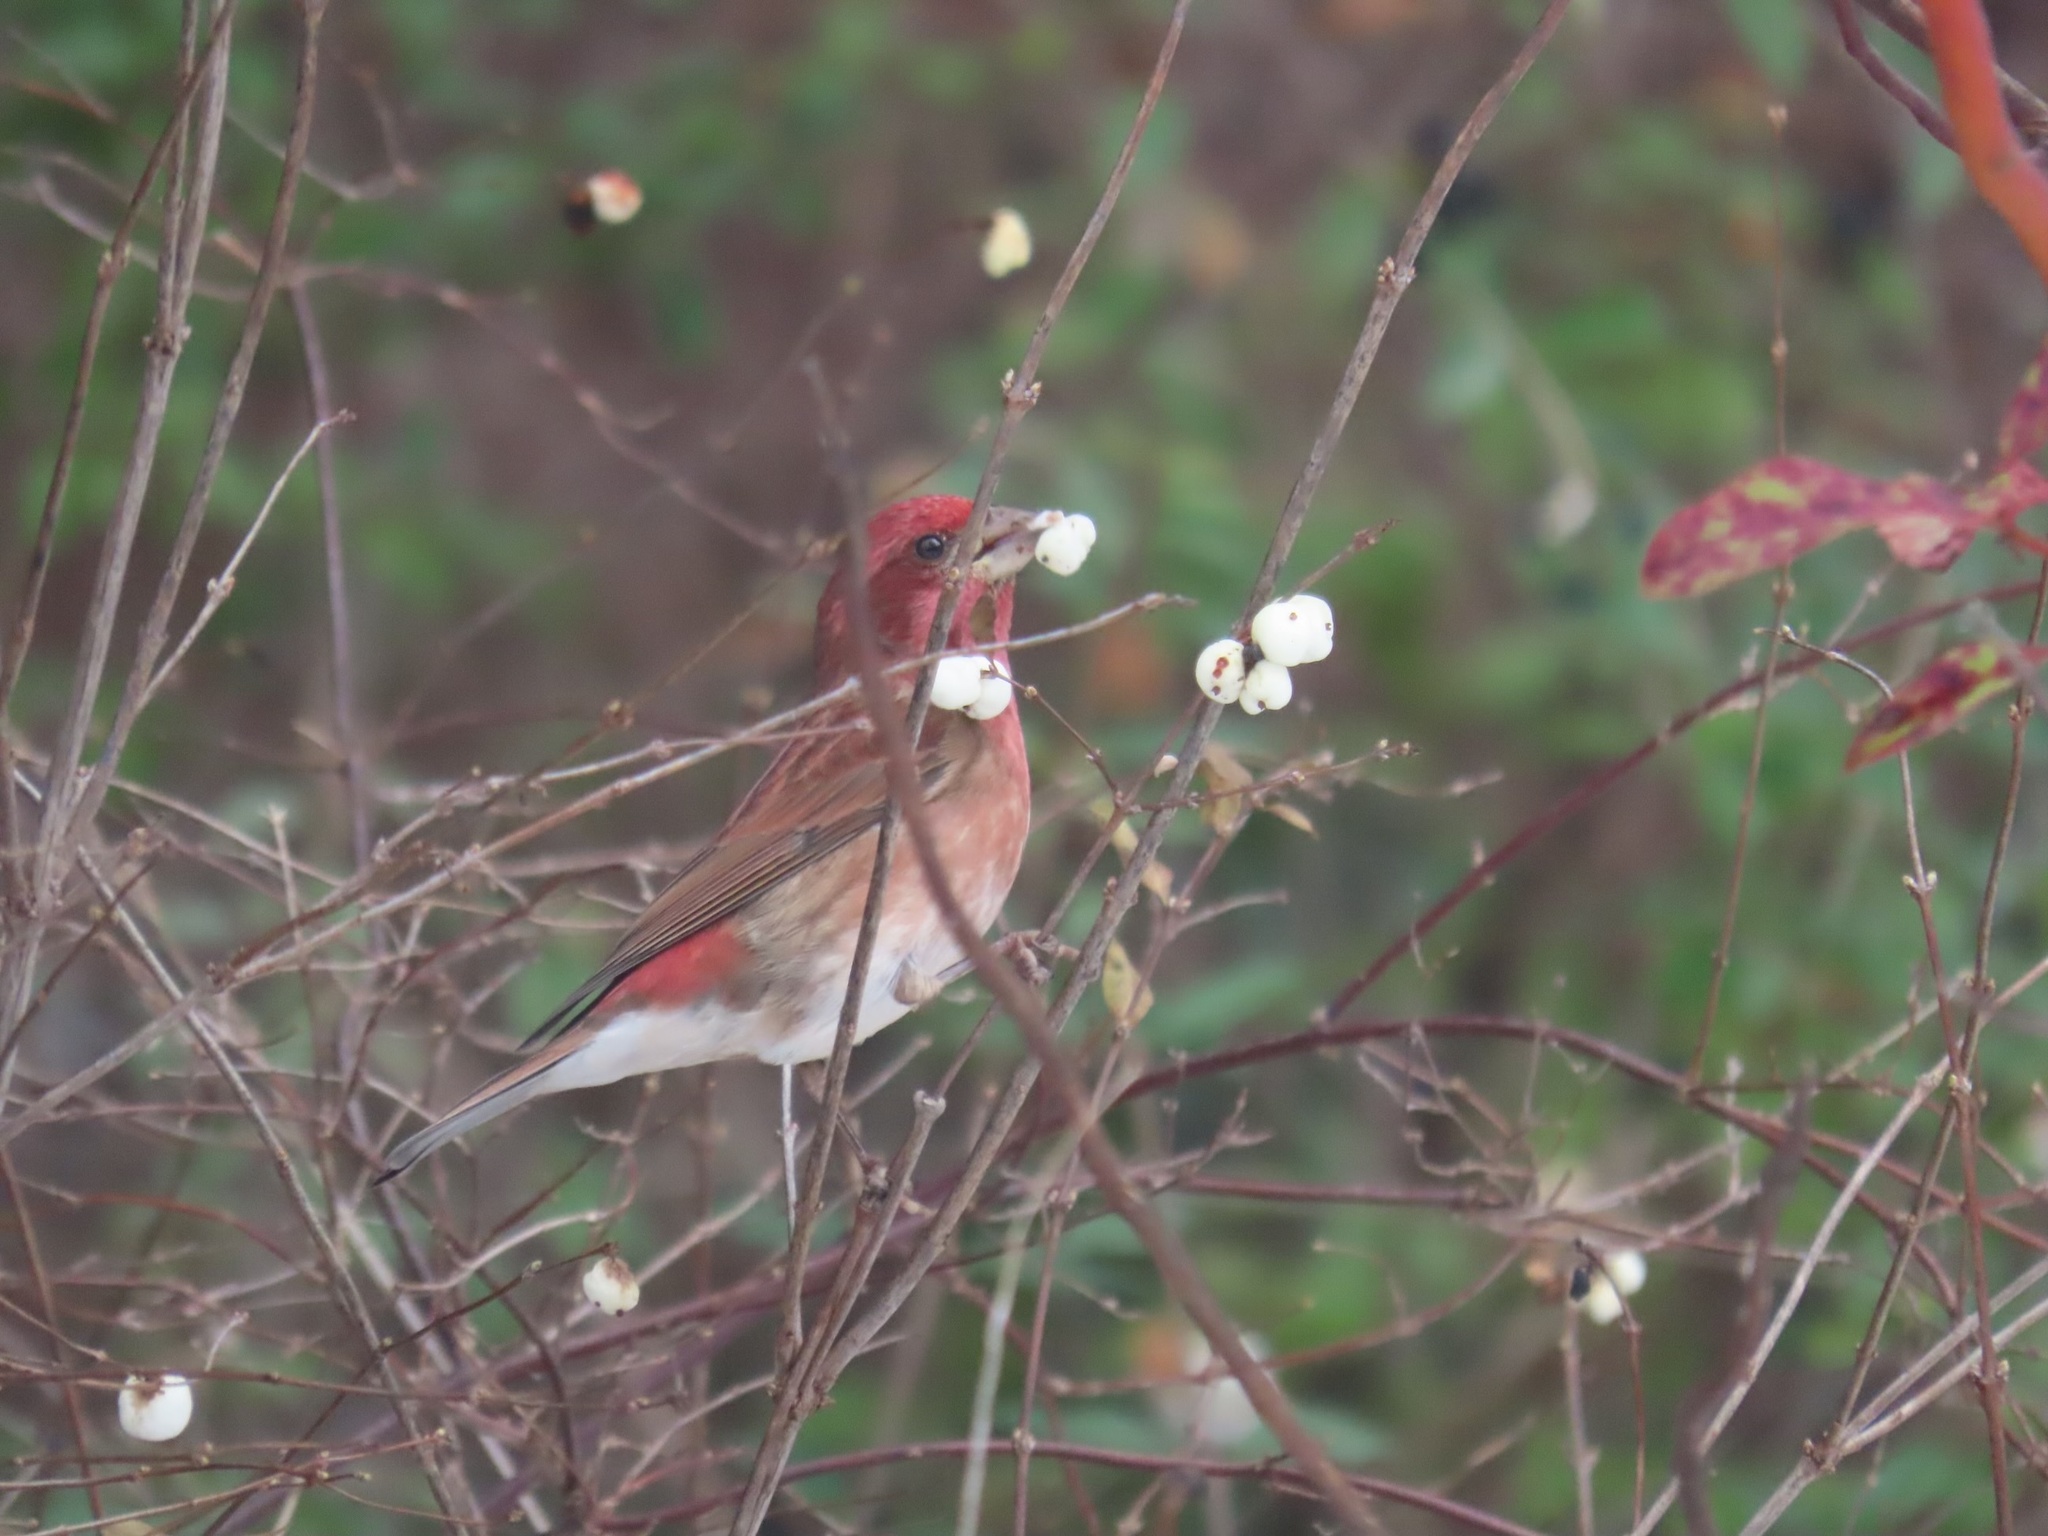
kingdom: Animalia
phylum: Chordata
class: Aves
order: Passeriformes
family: Fringillidae
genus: Haemorhous
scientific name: Haemorhous purpureus
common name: Purple finch
